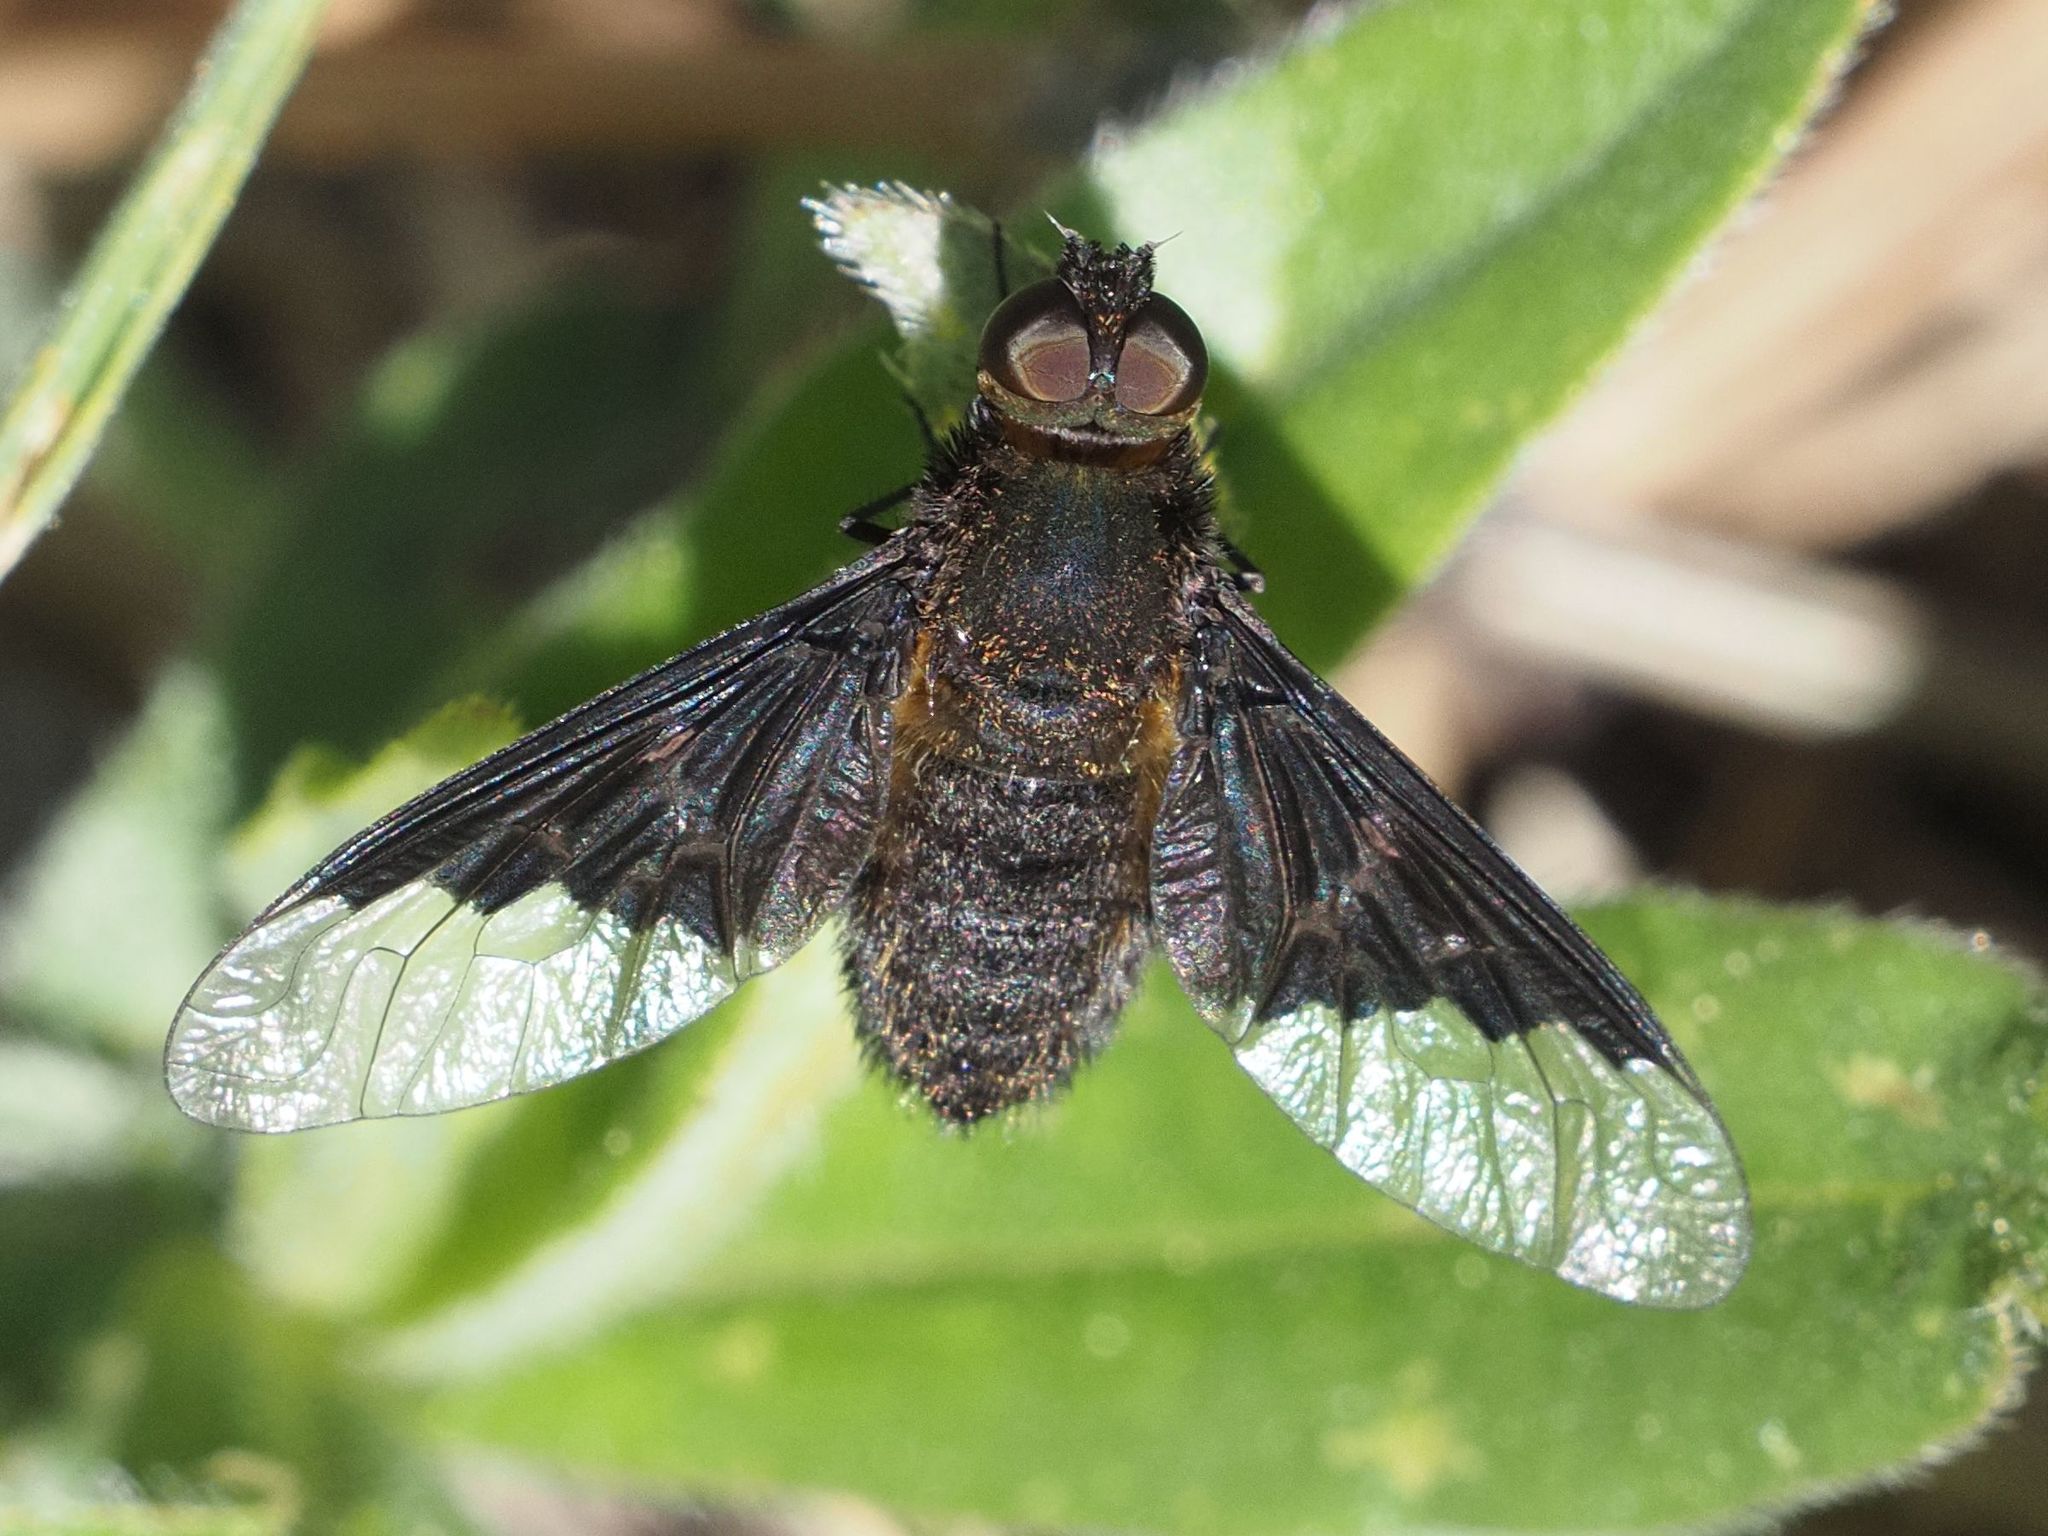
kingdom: Animalia
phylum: Arthropoda
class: Insecta
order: Diptera
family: Bombyliidae
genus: Hemipenthes
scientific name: Hemipenthes morio
